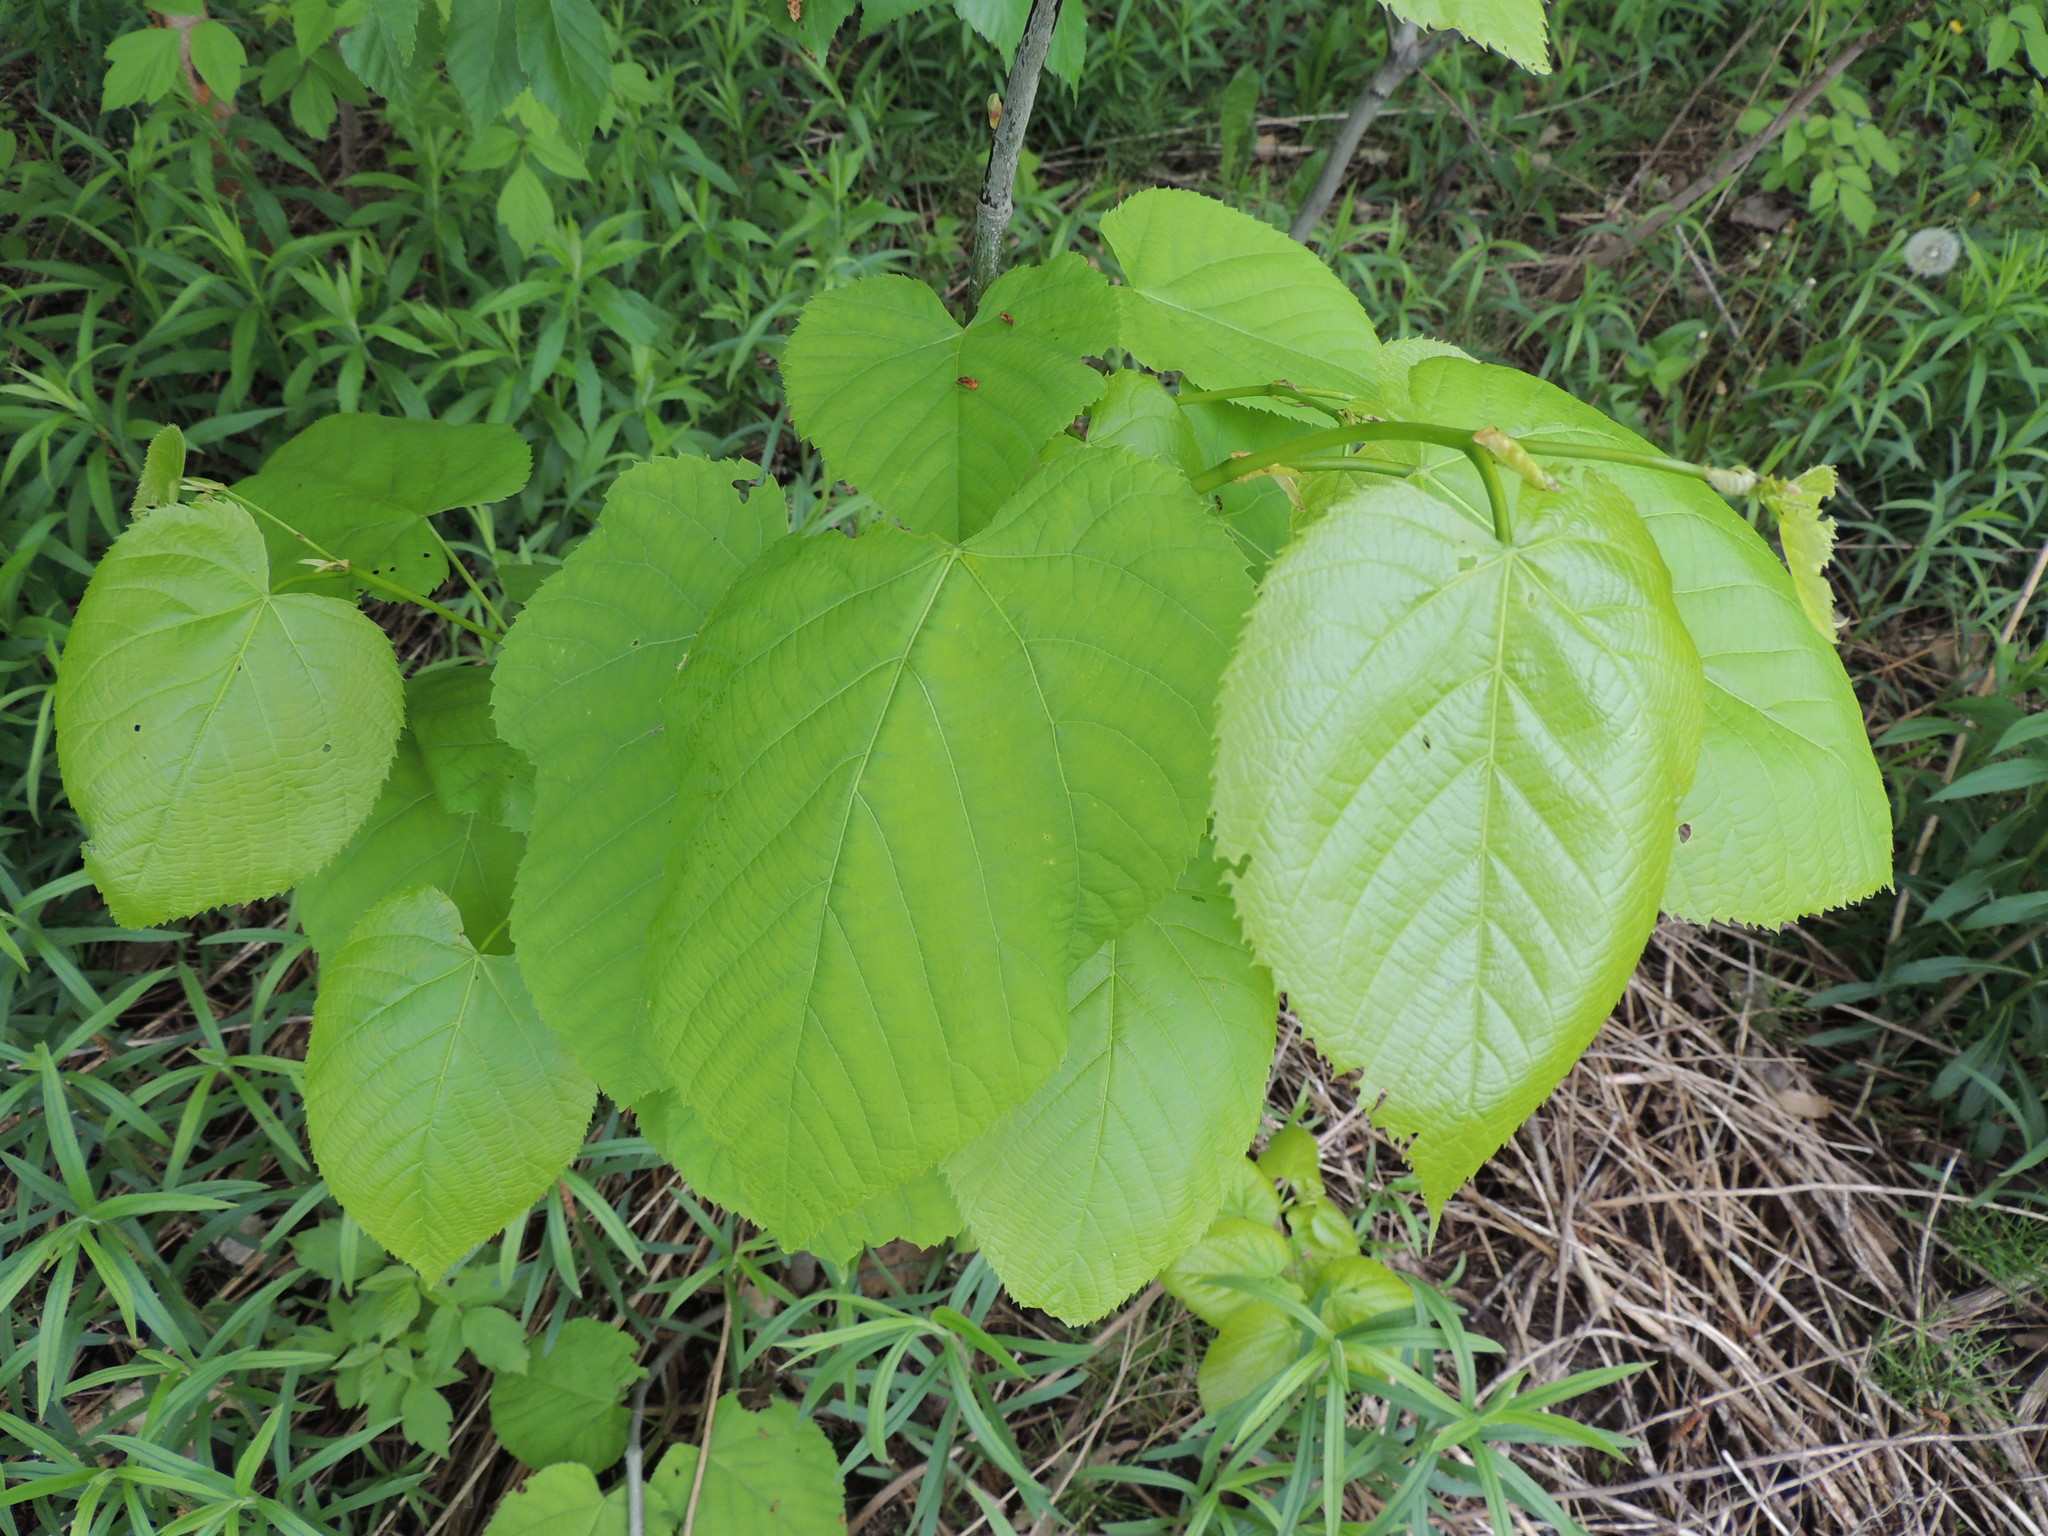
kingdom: Plantae
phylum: Tracheophyta
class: Magnoliopsida
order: Malvales
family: Malvaceae
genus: Tilia
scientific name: Tilia americana
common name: Basswood
